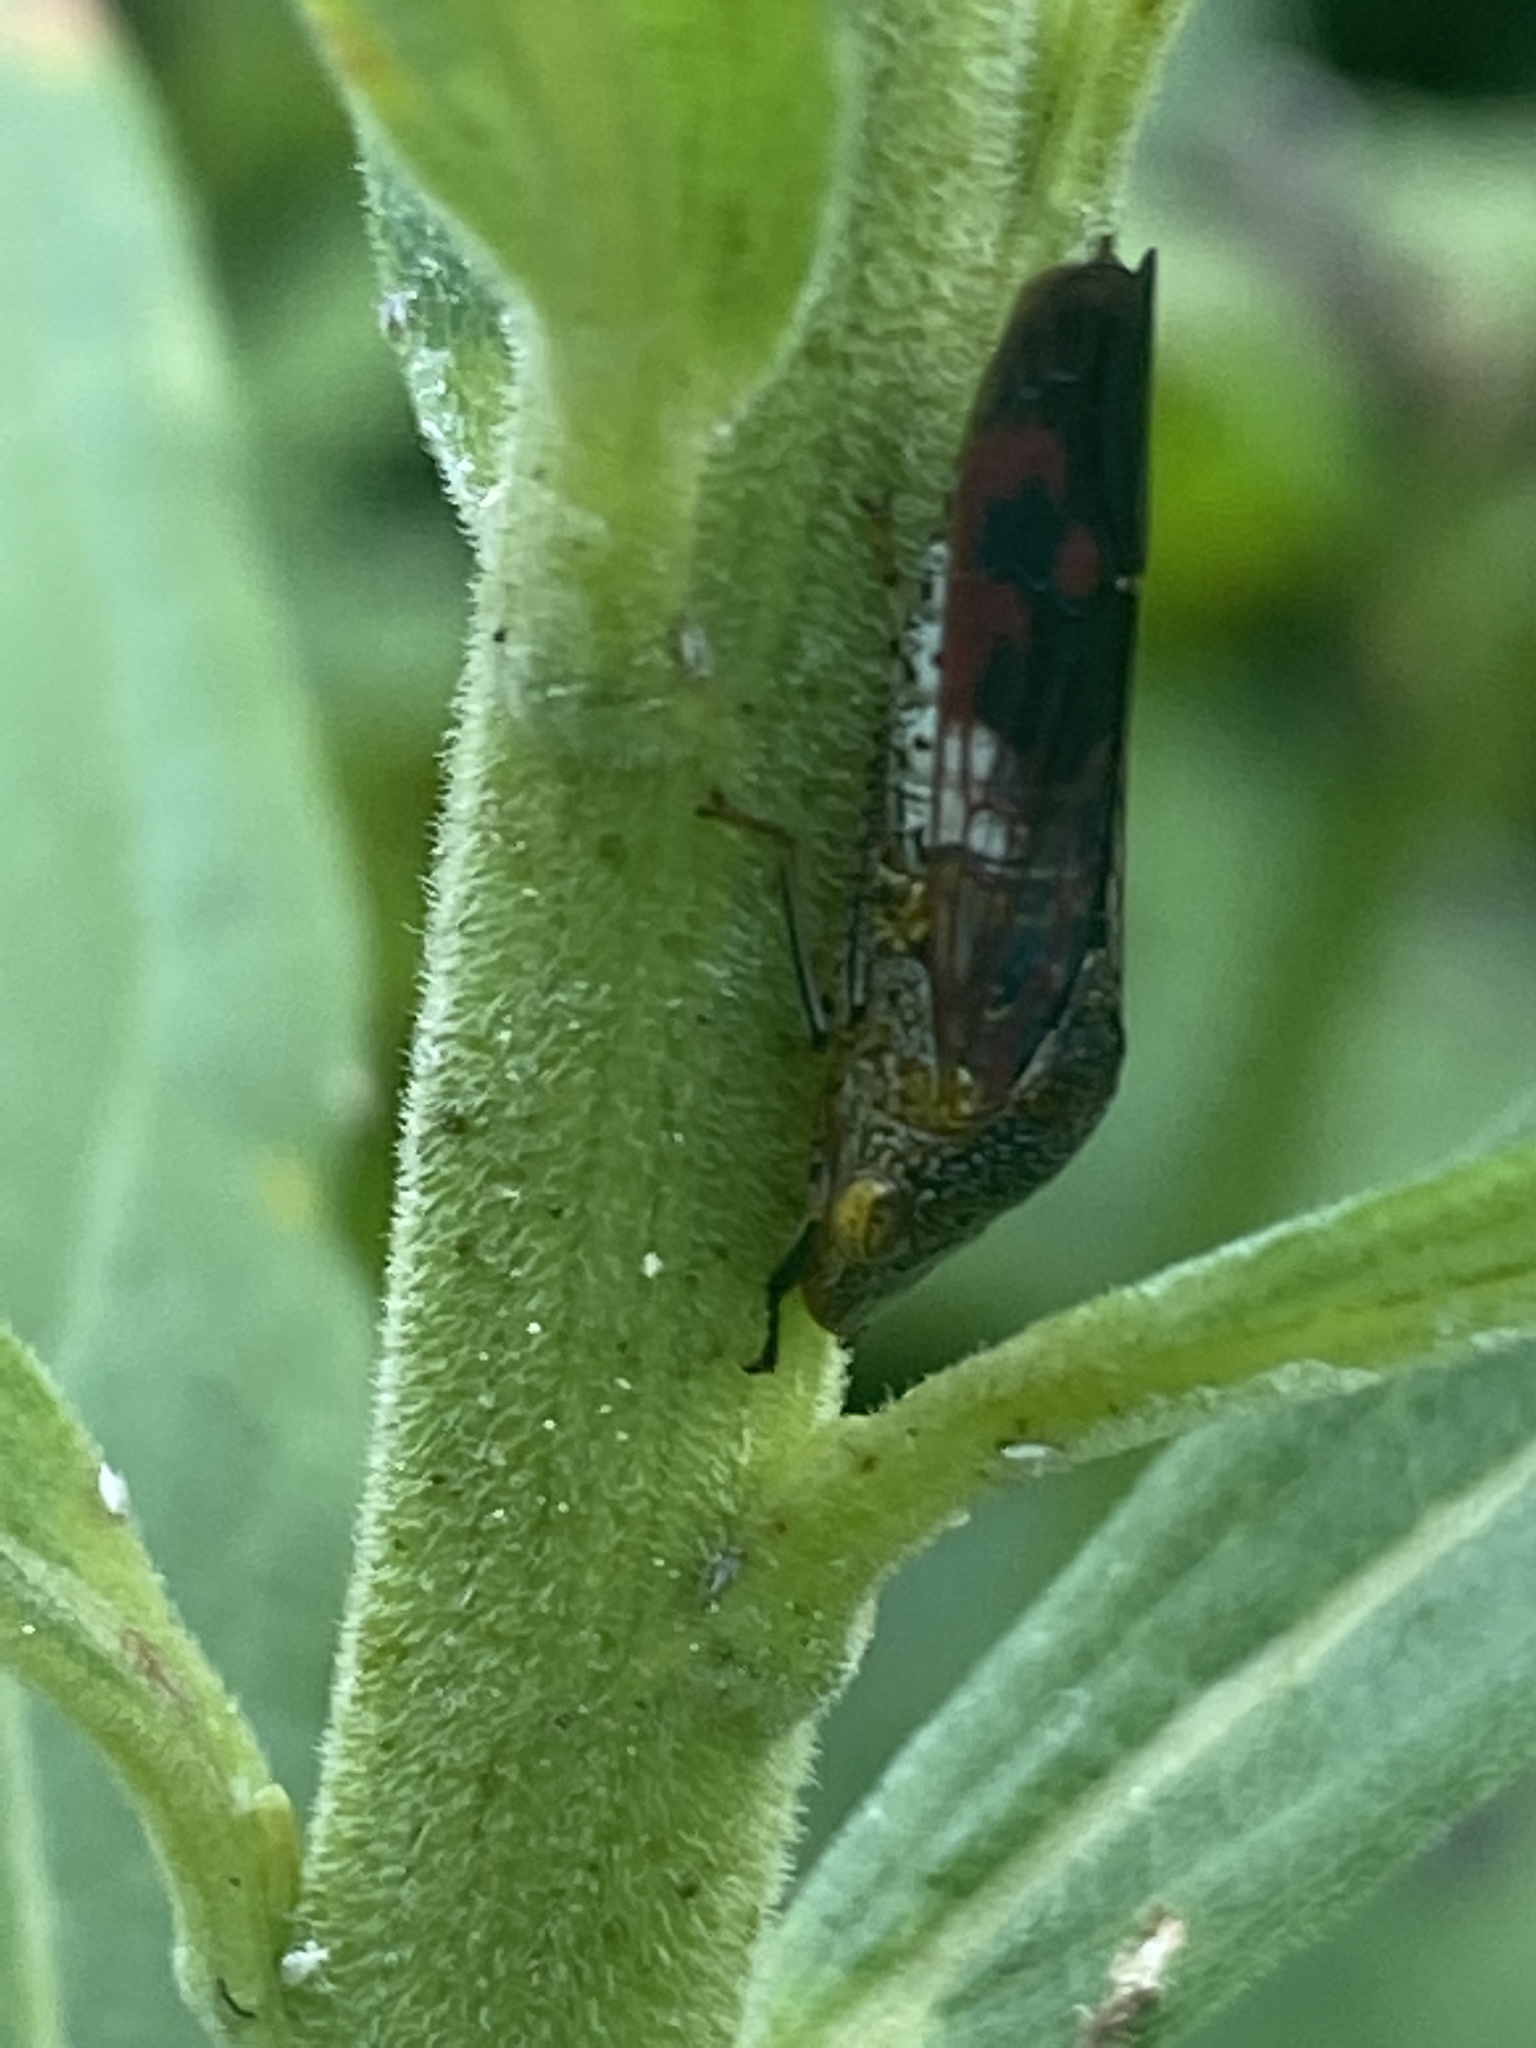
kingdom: Animalia
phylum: Arthropoda
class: Insecta
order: Hemiptera
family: Cicadellidae
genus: Homalodisca
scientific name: Homalodisca vitripennis
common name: Glassy-winged sharpshooter
